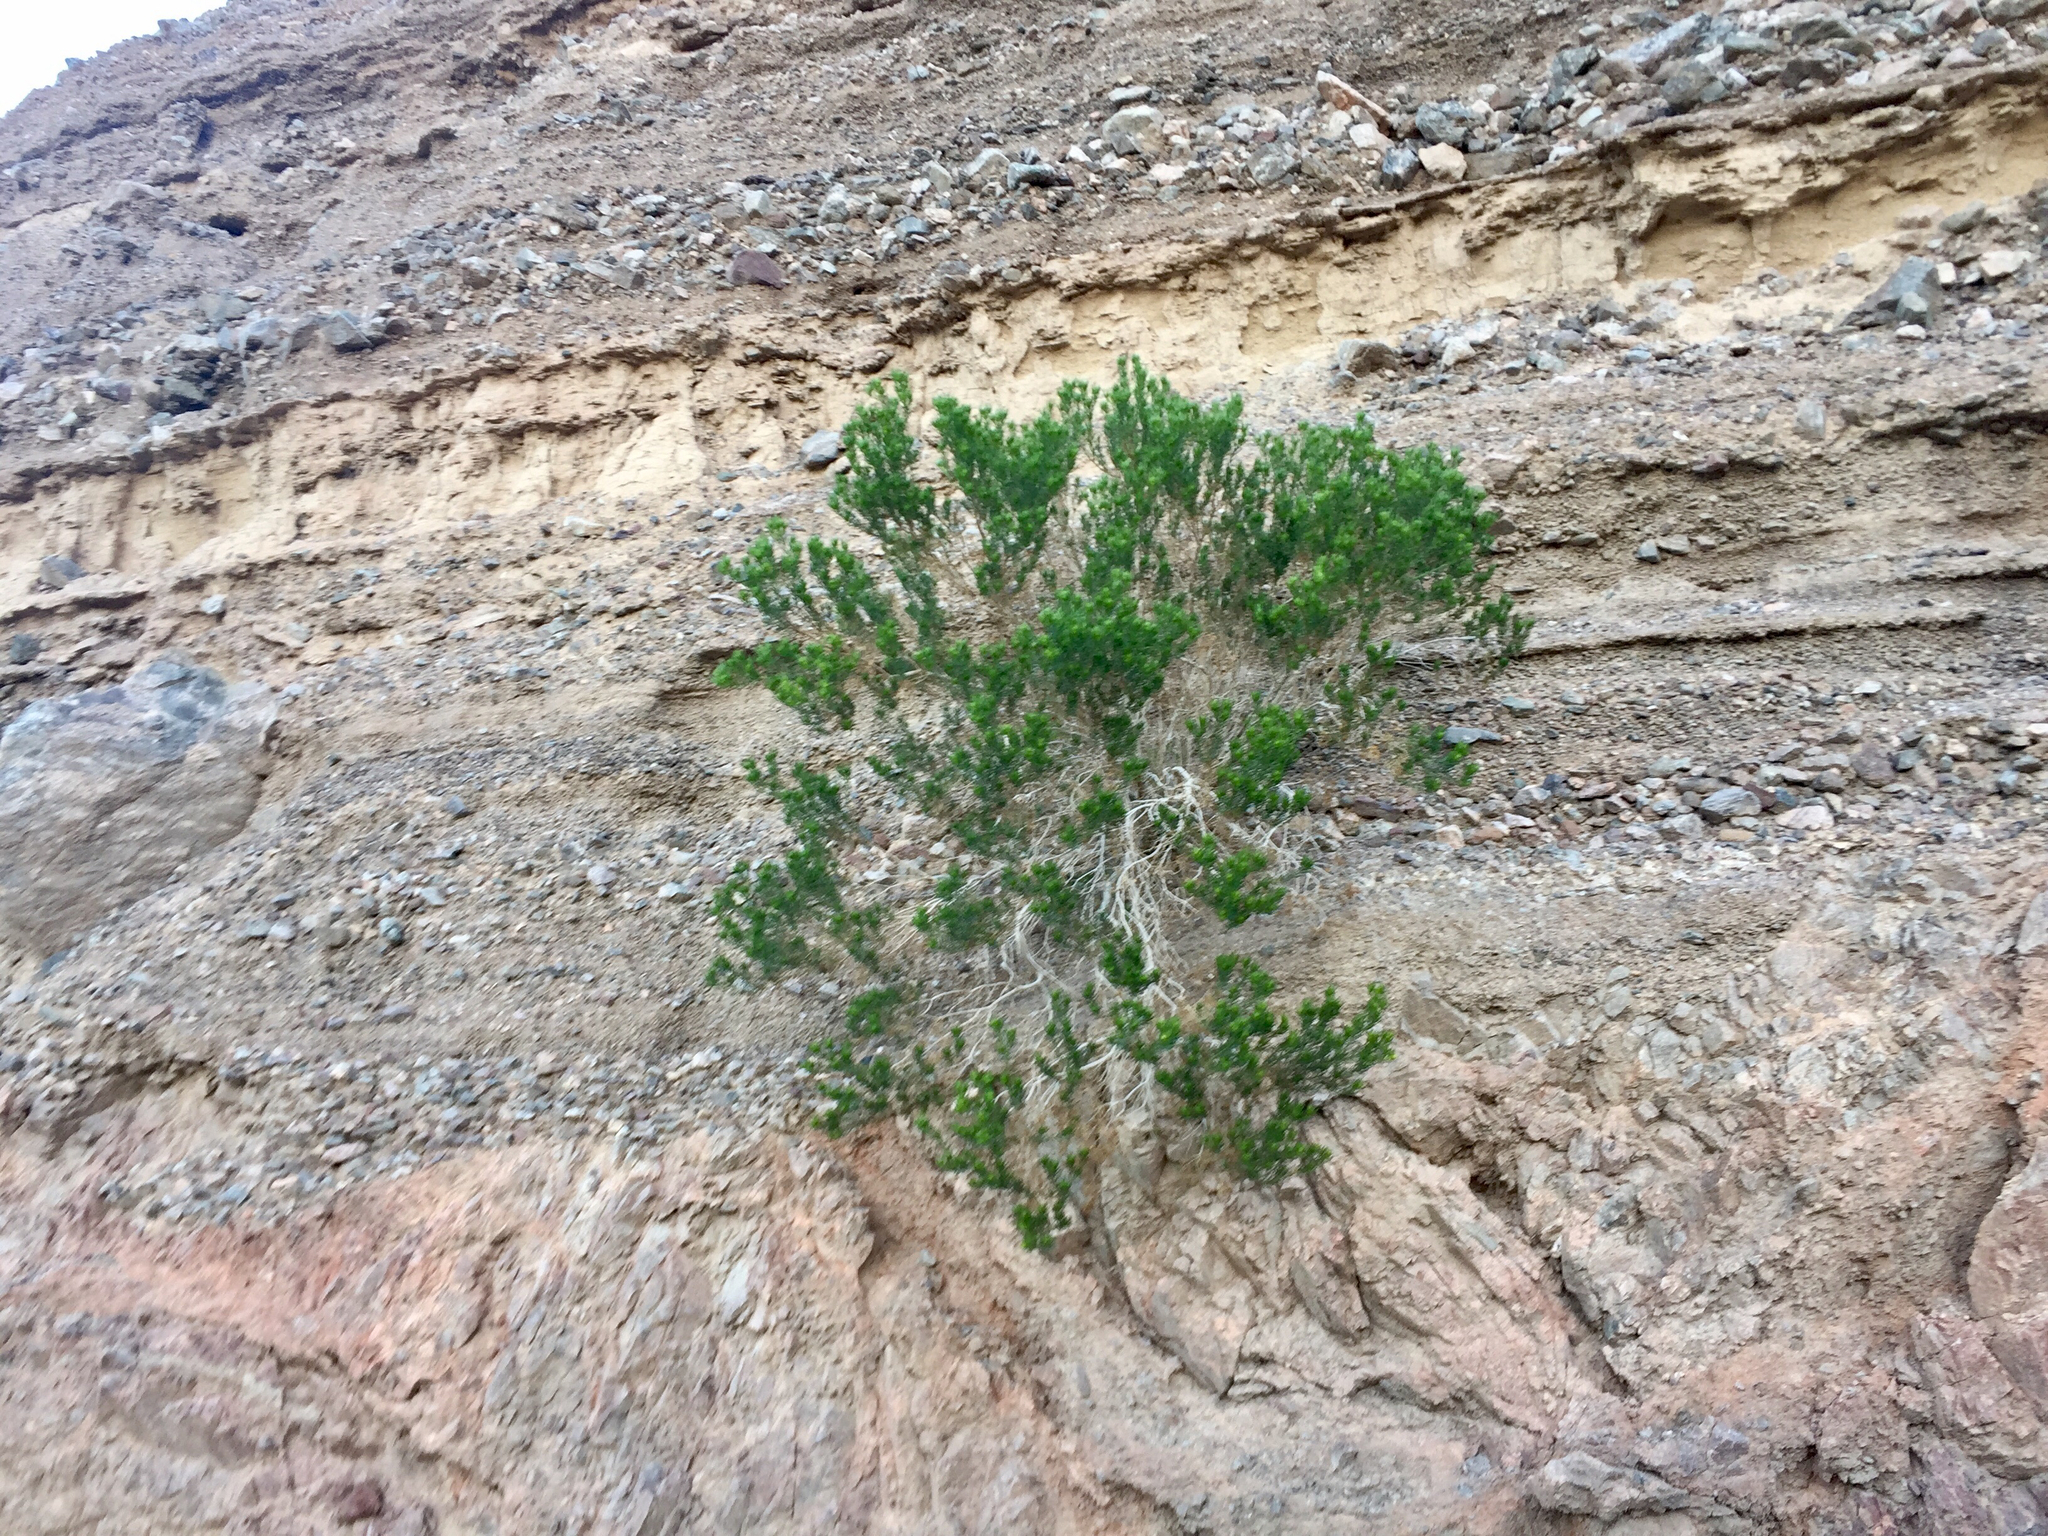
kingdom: Plantae
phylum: Tracheophyta
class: Magnoliopsida
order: Asterales
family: Asteraceae
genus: Peucephyllum
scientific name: Peucephyllum schottii
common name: Pygmy-cedar
